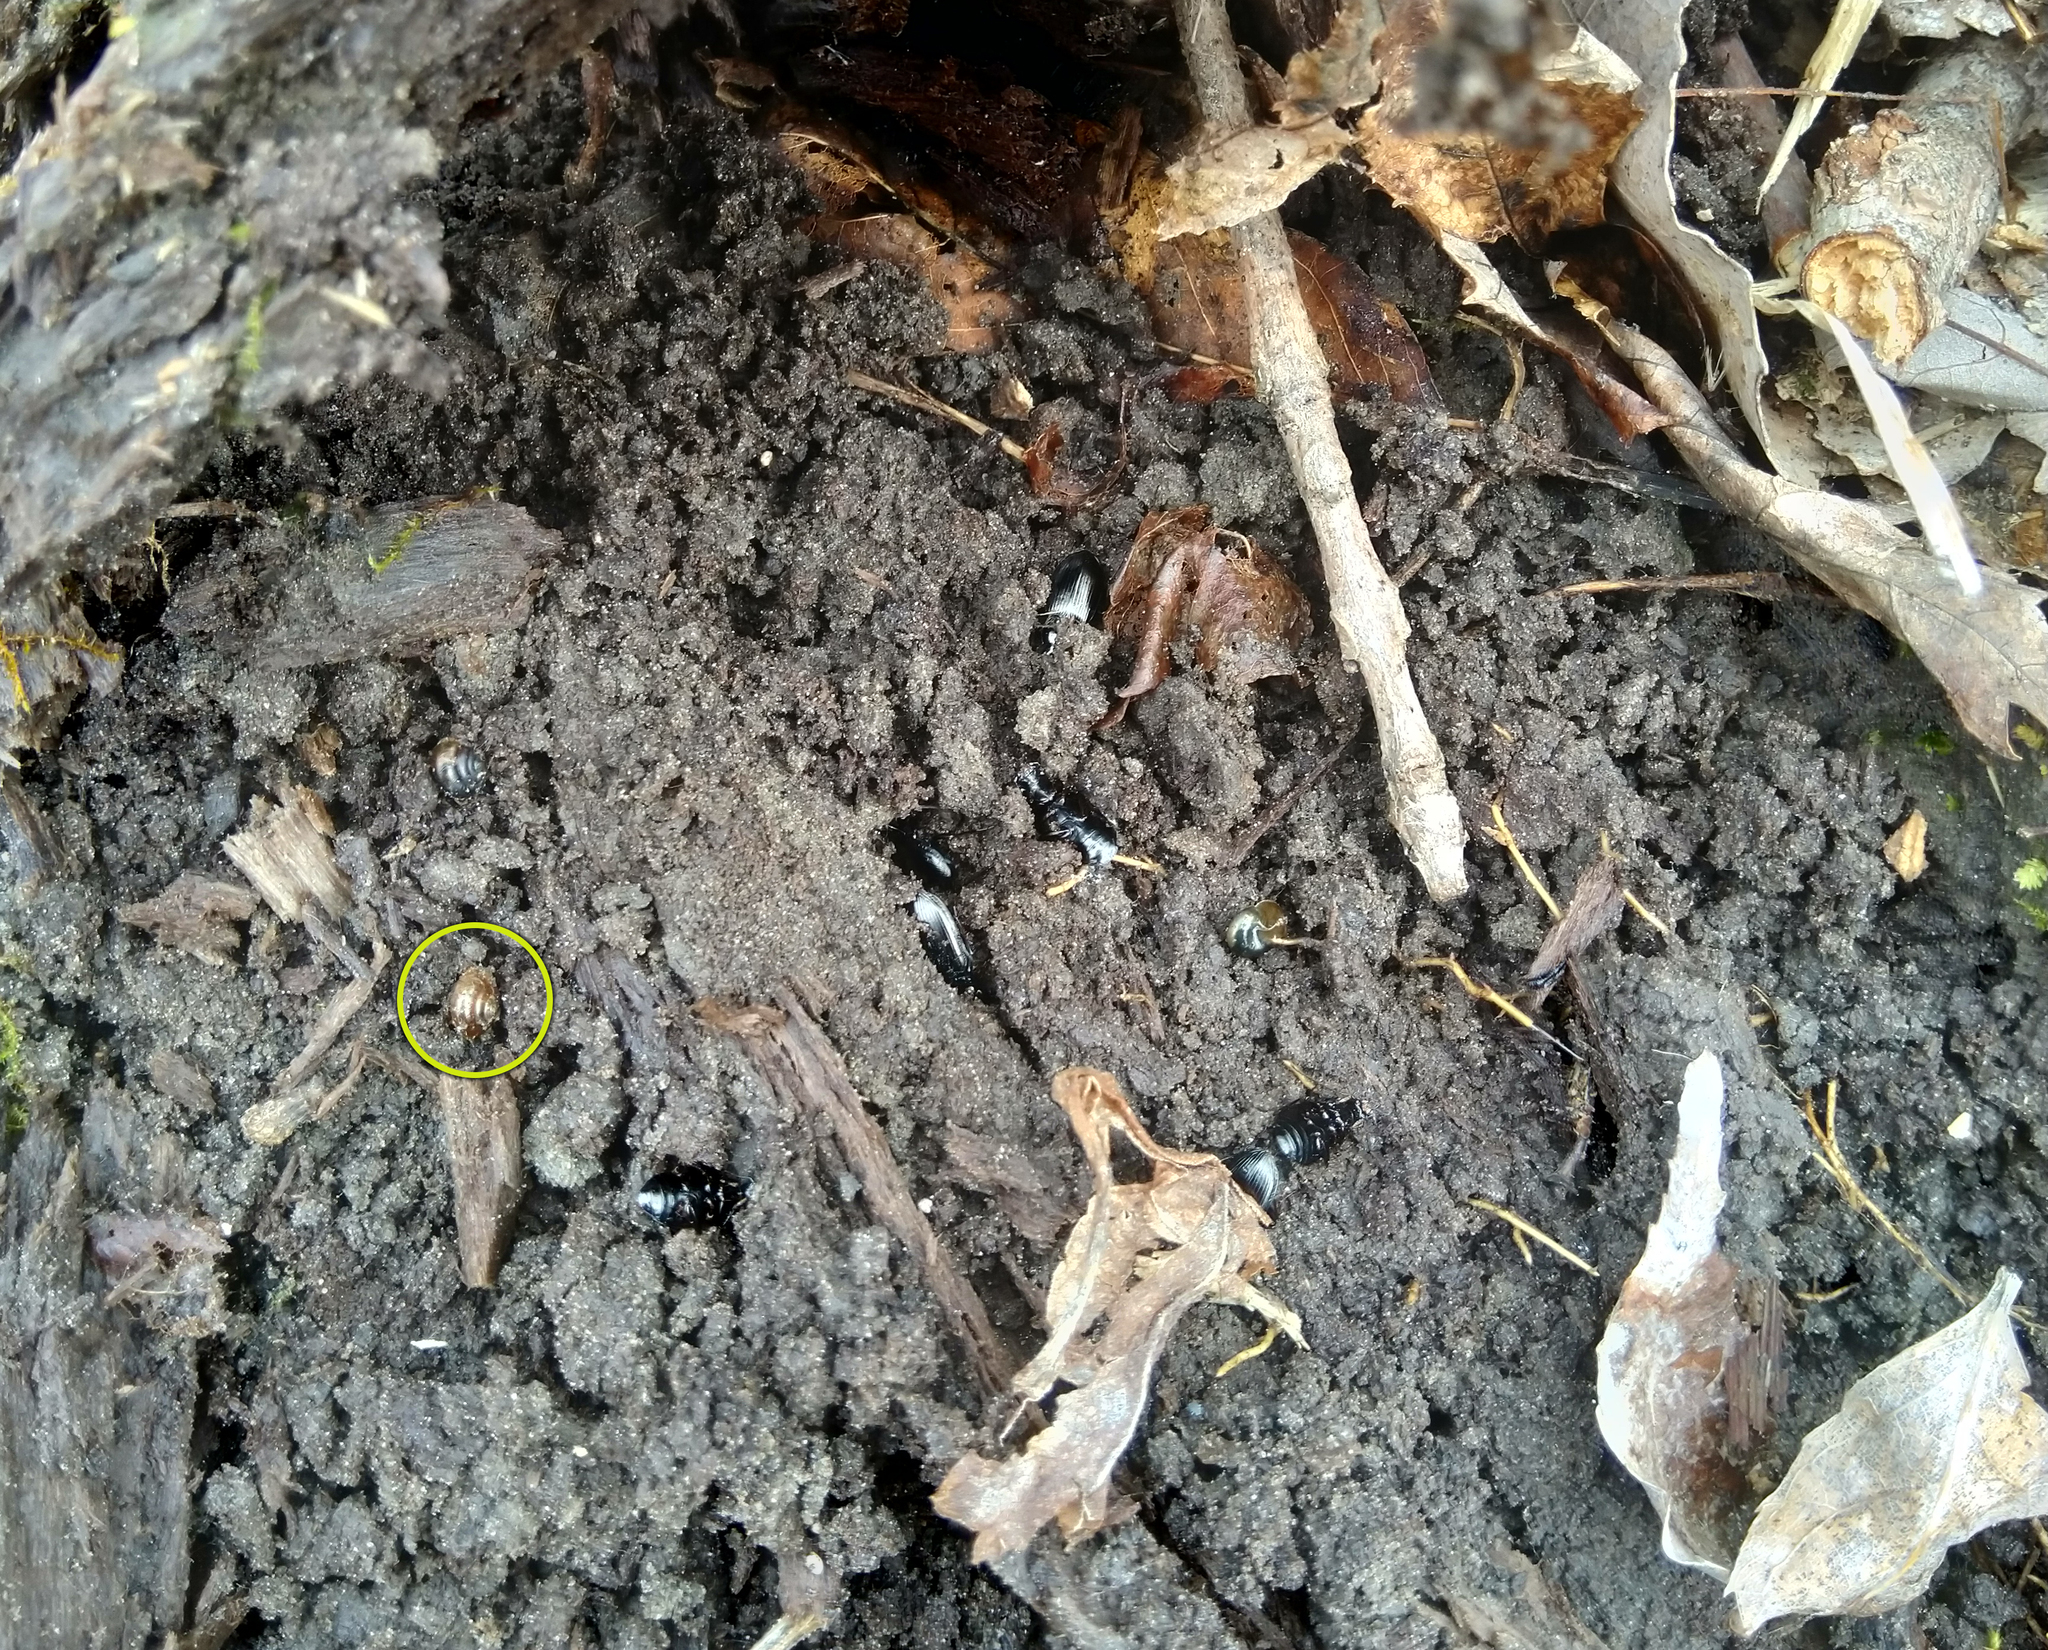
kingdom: Animalia
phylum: Mollusca
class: Gastropoda
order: Stylommatophora
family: Gastrodontidae
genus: Zonitoides
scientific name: Zonitoides nitidus
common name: Shiny glass snail
